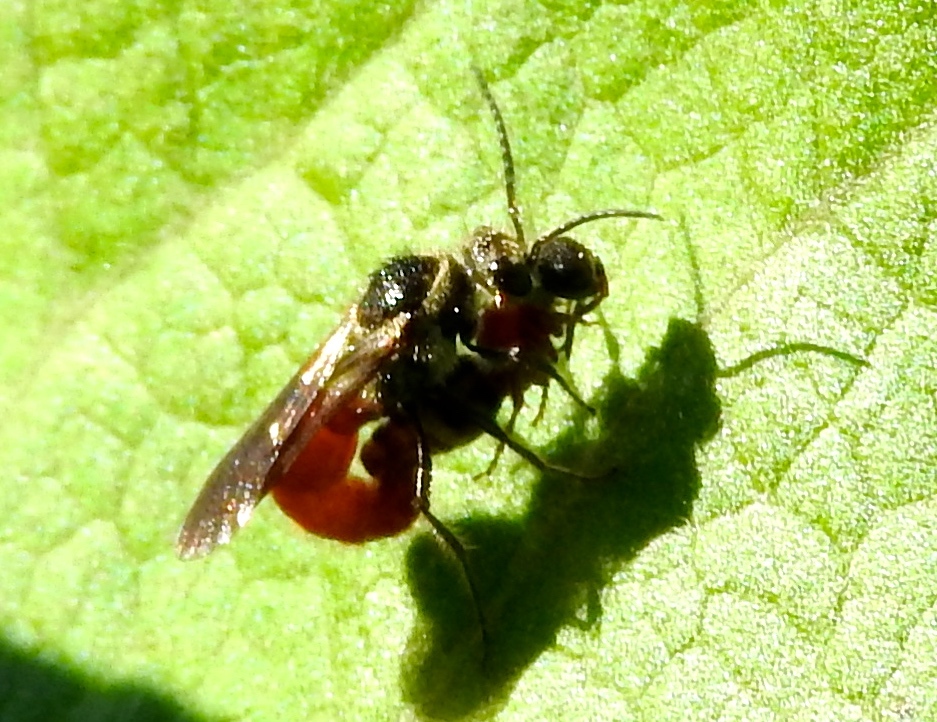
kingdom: Animalia
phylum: Arthropoda
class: Insecta
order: Hymenoptera
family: Mutillidae
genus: Timulla
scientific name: Timulla
